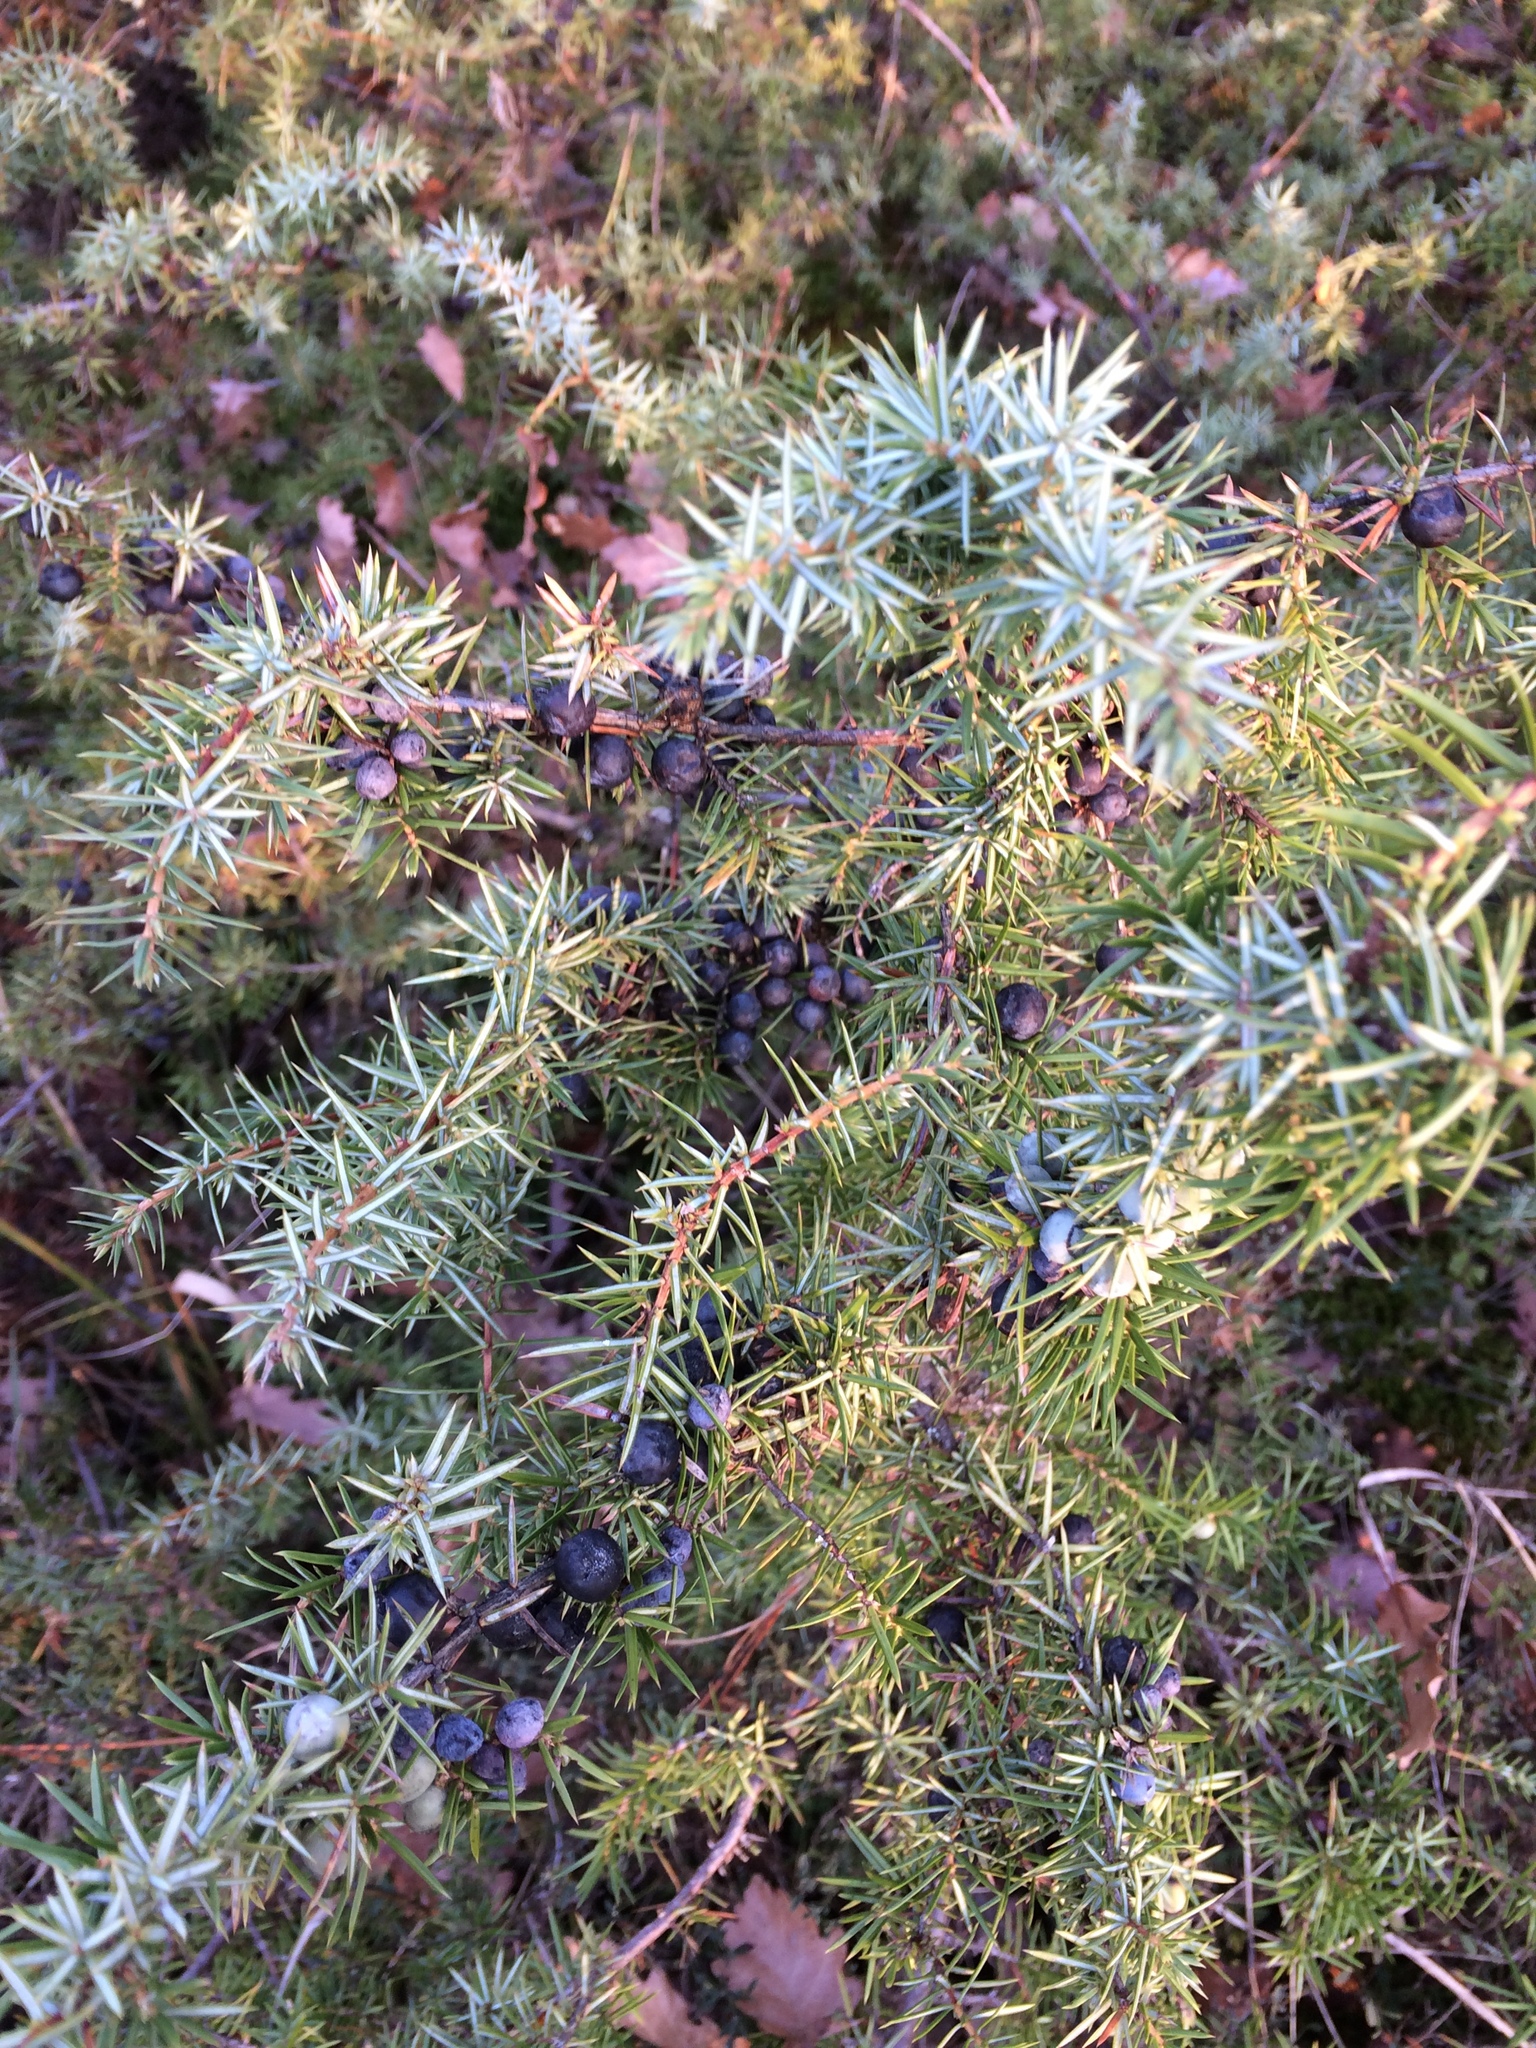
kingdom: Plantae
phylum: Tracheophyta
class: Pinopsida
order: Pinales
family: Cupressaceae
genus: Juniperus
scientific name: Juniperus communis
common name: Common juniper
